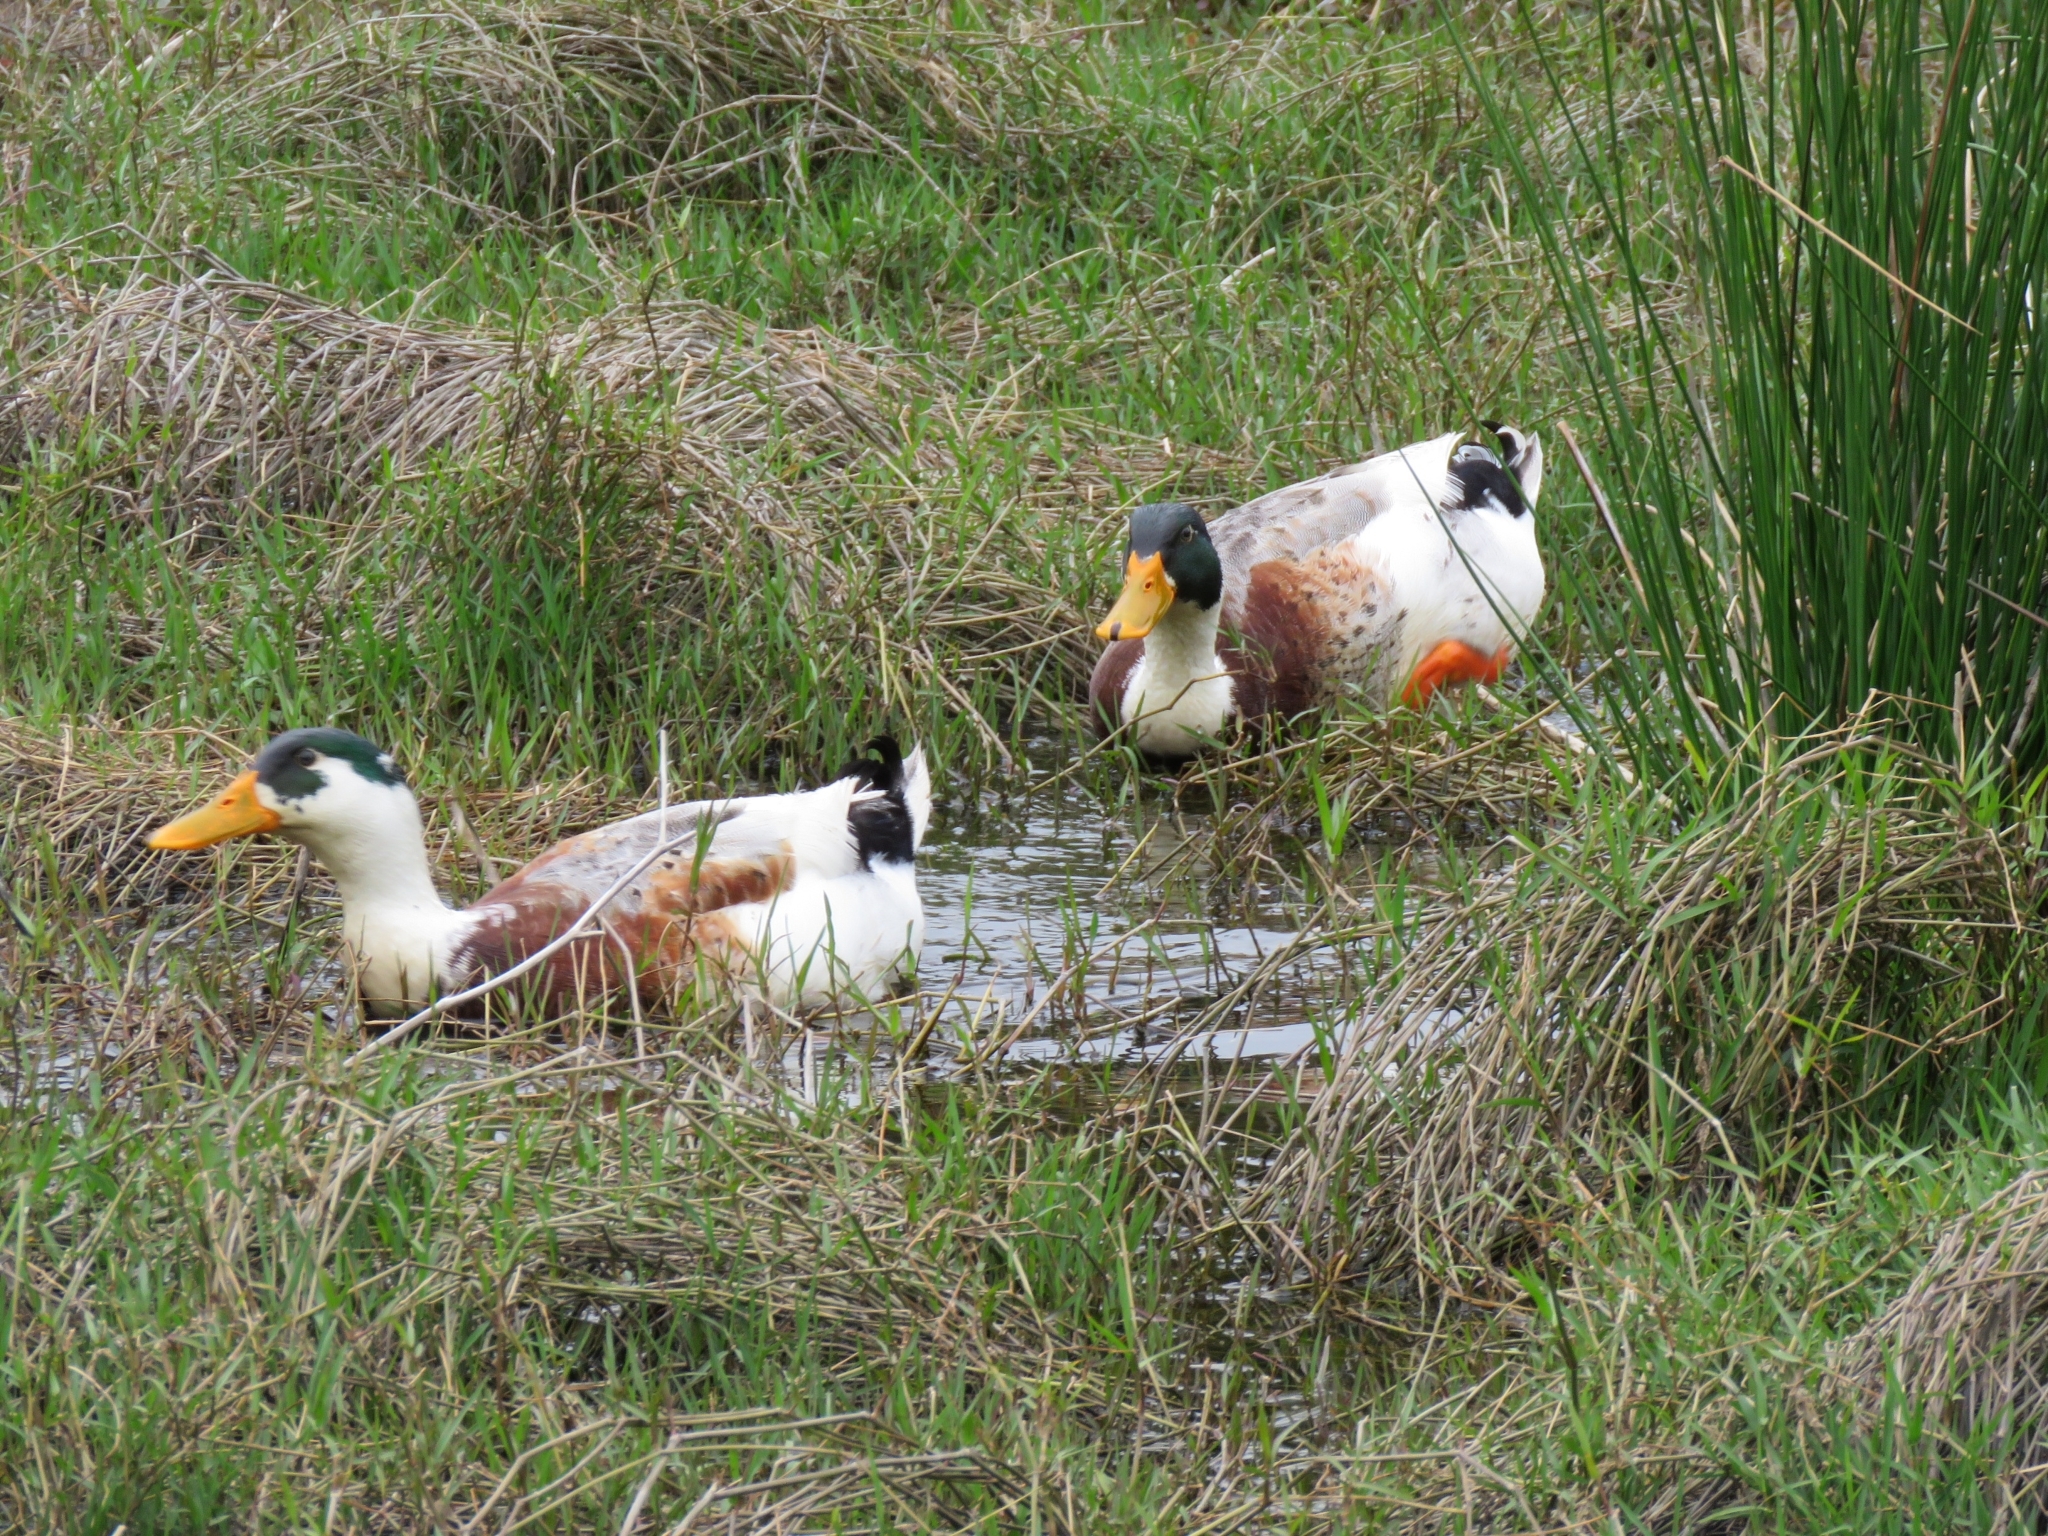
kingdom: Animalia
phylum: Chordata
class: Aves
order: Anseriformes
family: Anatidae
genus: Anas
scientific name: Anas platyrhynchos
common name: Mallard
